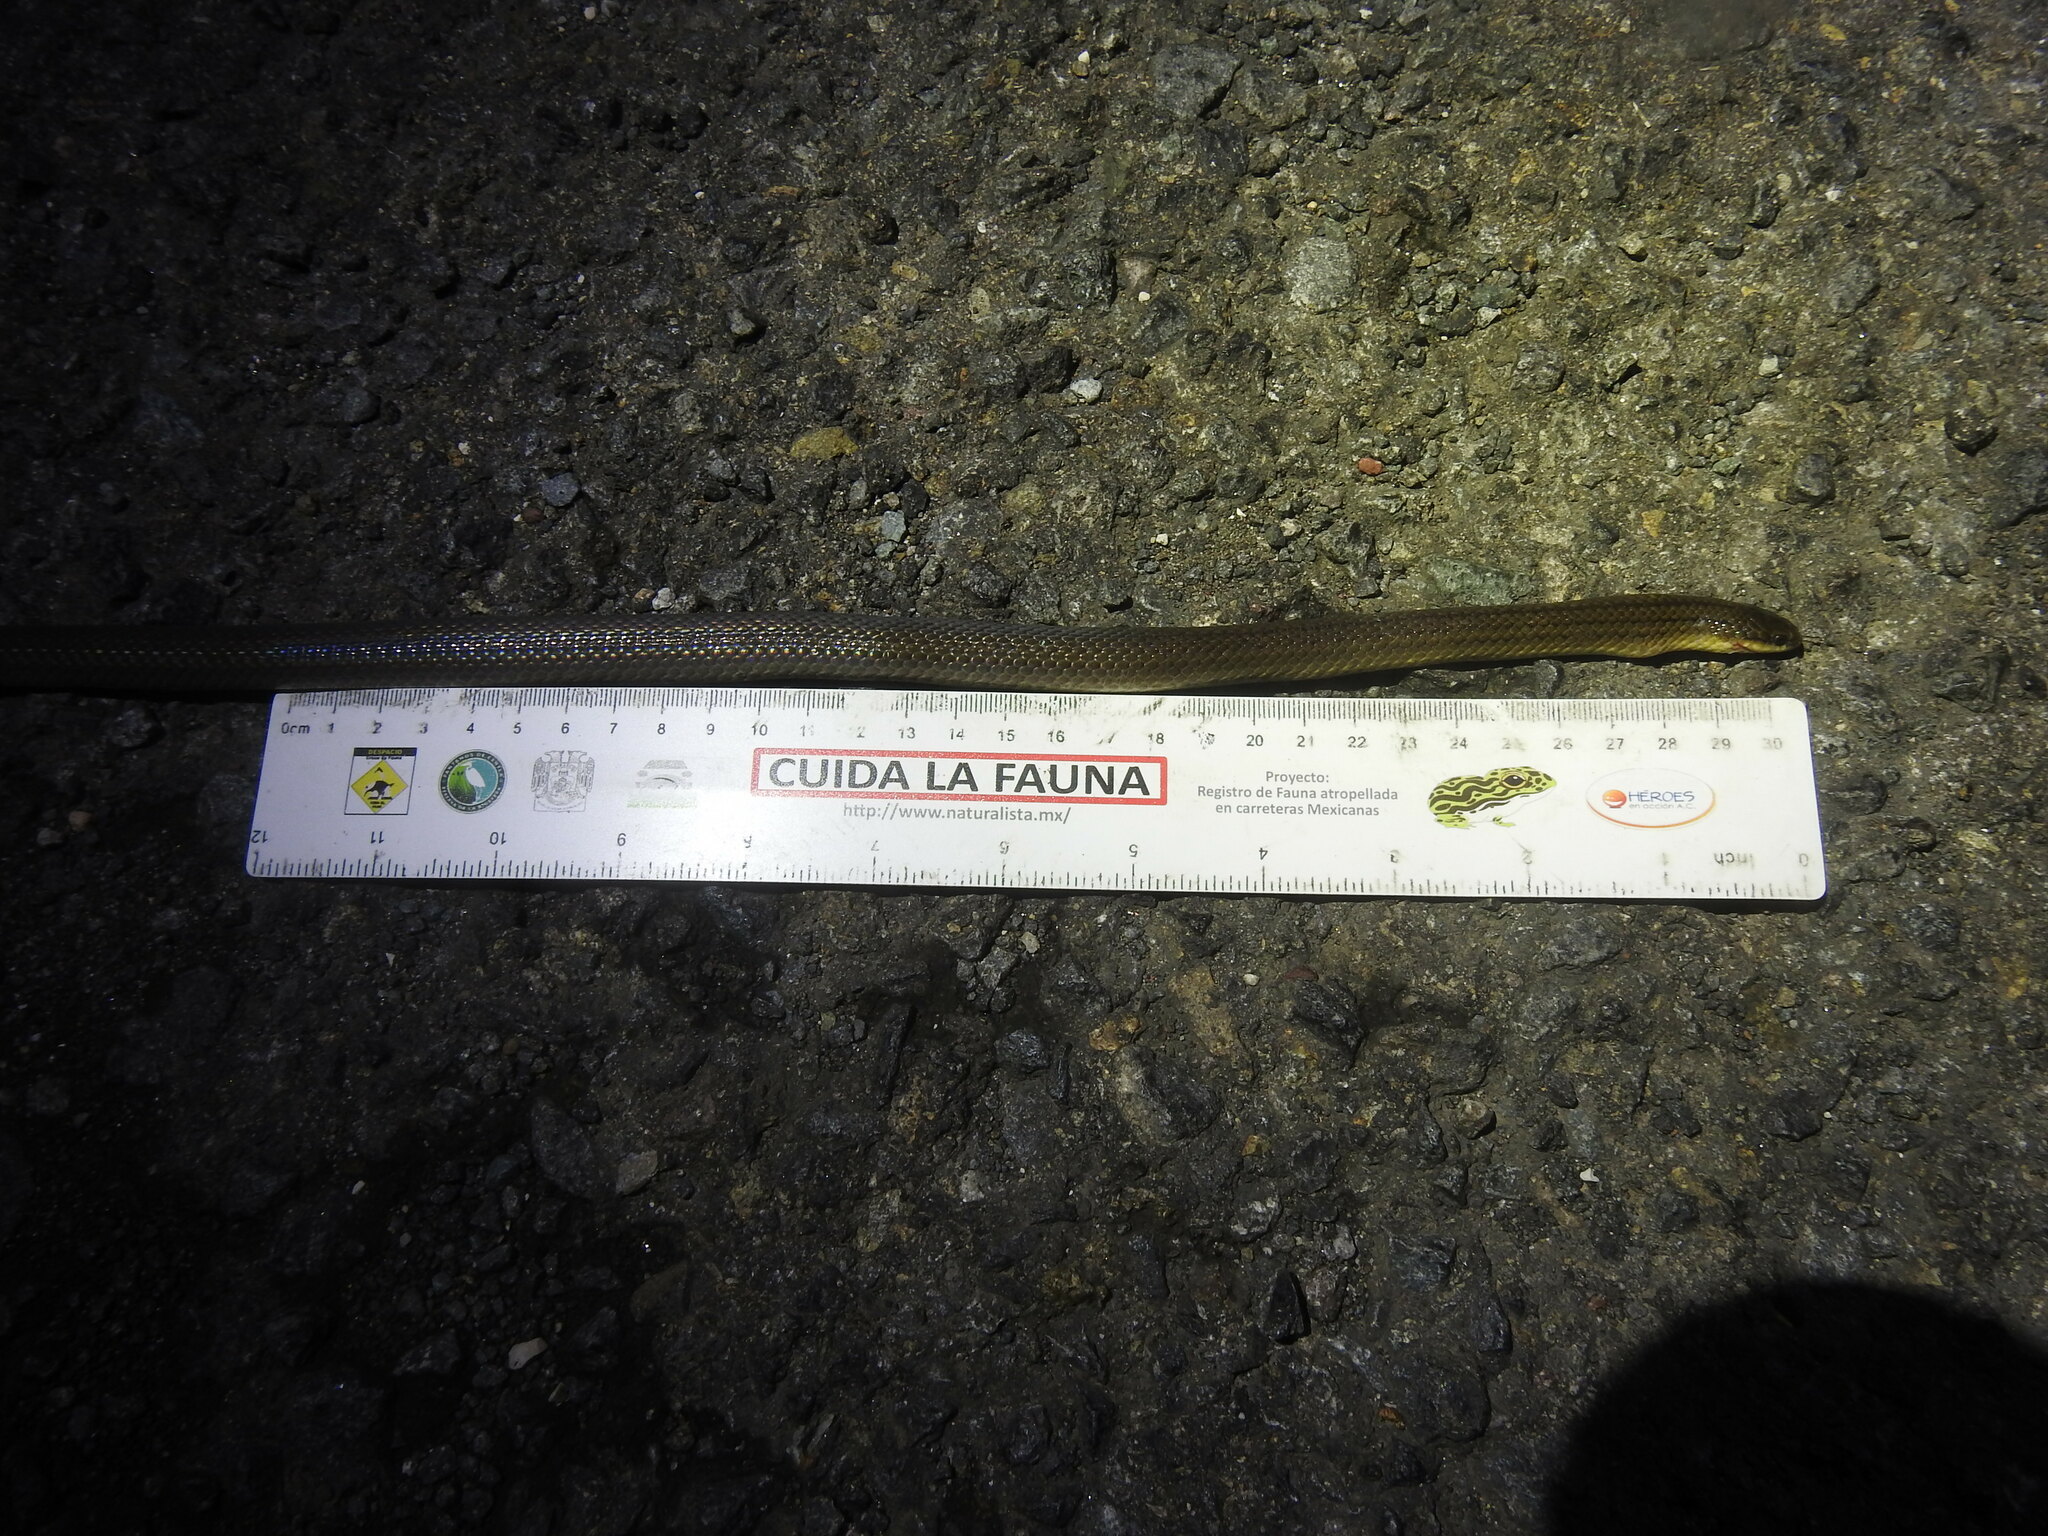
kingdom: Animalia
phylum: Chordata
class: Squamata
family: Colubridae
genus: Stenorrhina
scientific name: Stenorrhina freminvillei
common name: Blood snake
